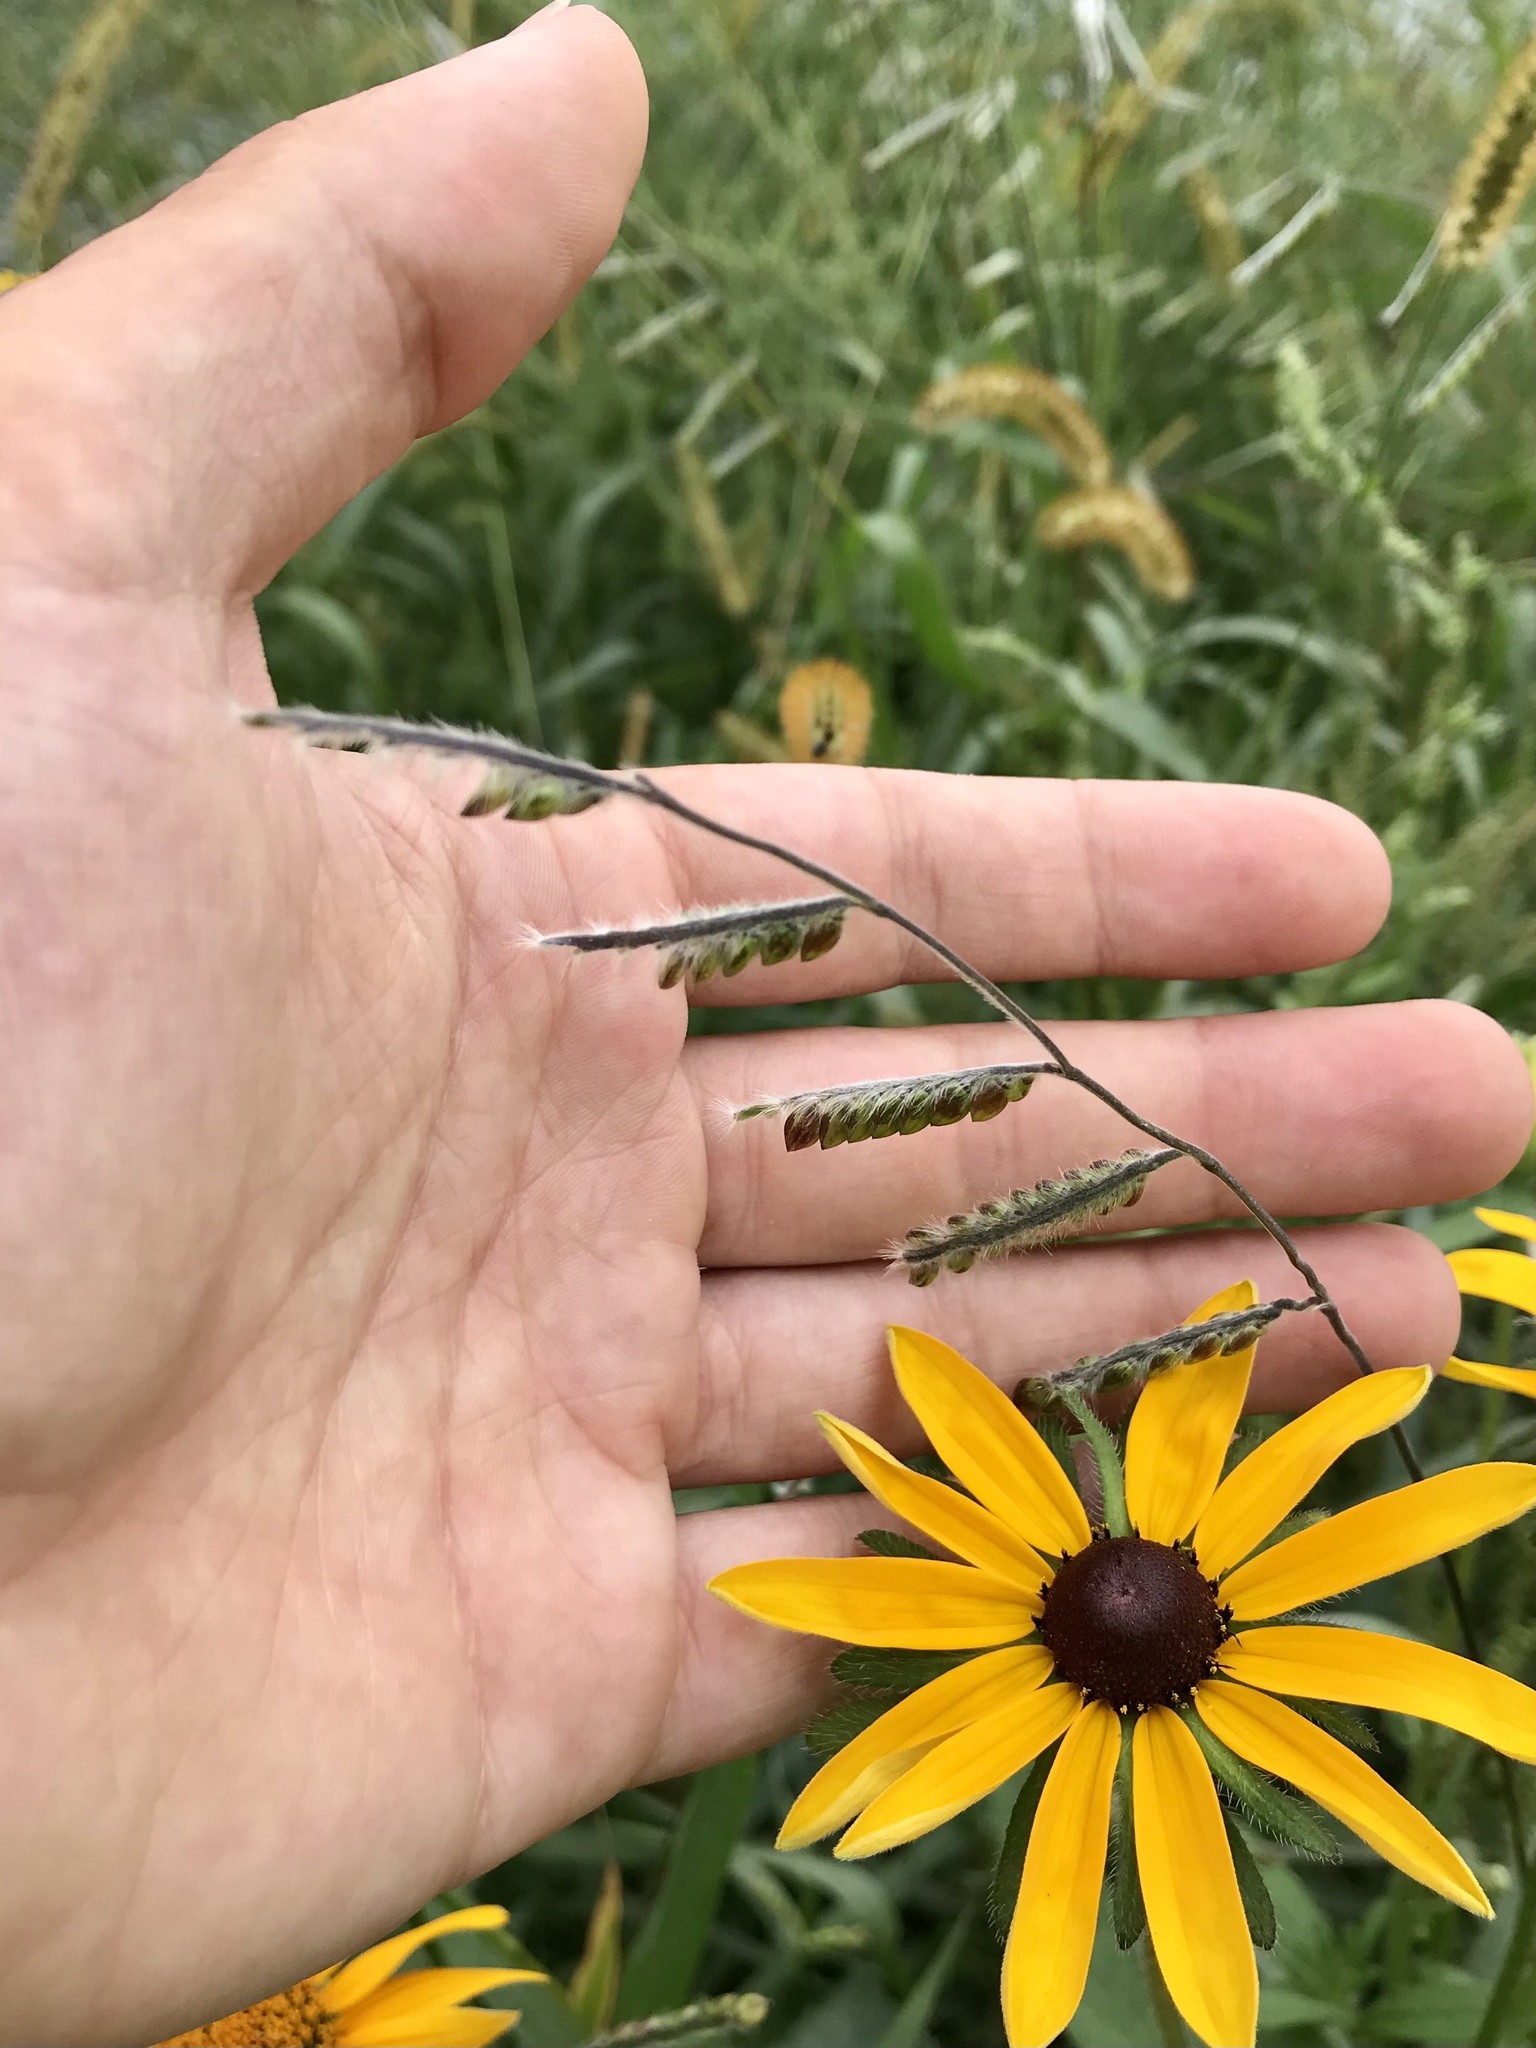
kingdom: Plantae
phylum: Tracheophyta
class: Liliopsida
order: Poales
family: Poaceae
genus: Eriochloa
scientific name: Eriochloa villosa
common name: Hairy cupgrass
